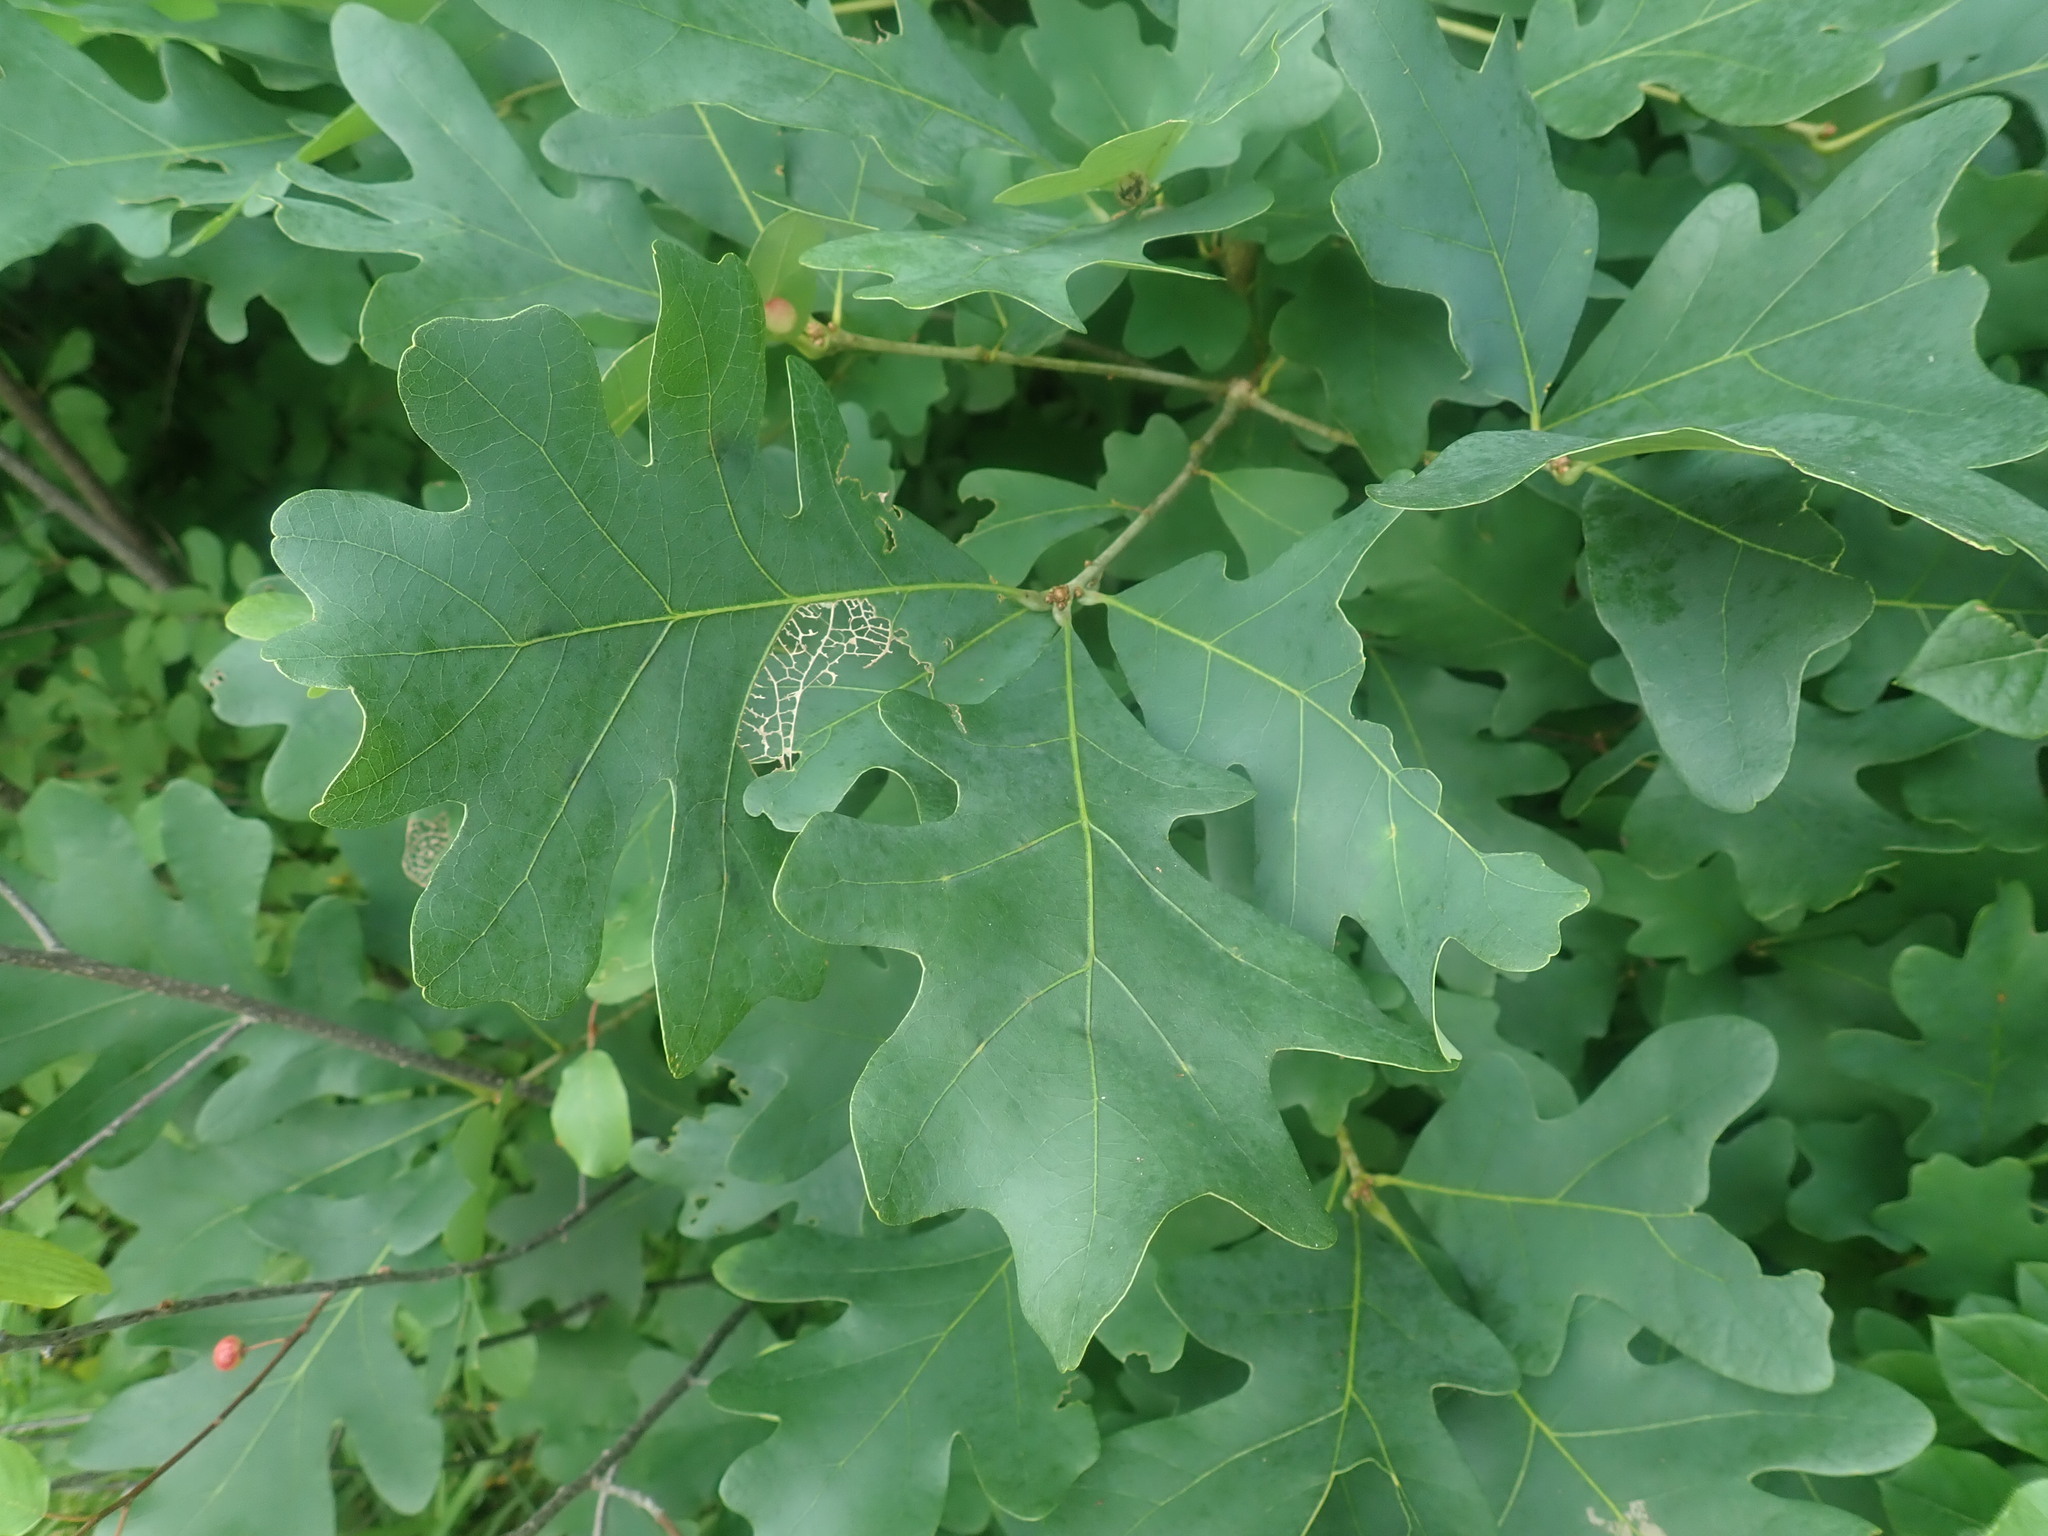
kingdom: Plantae
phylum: Tracheophyta
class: Magnoliopsida
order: Fagales
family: Fagaceae
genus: Quercus
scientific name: Quercus alba
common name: White oak
